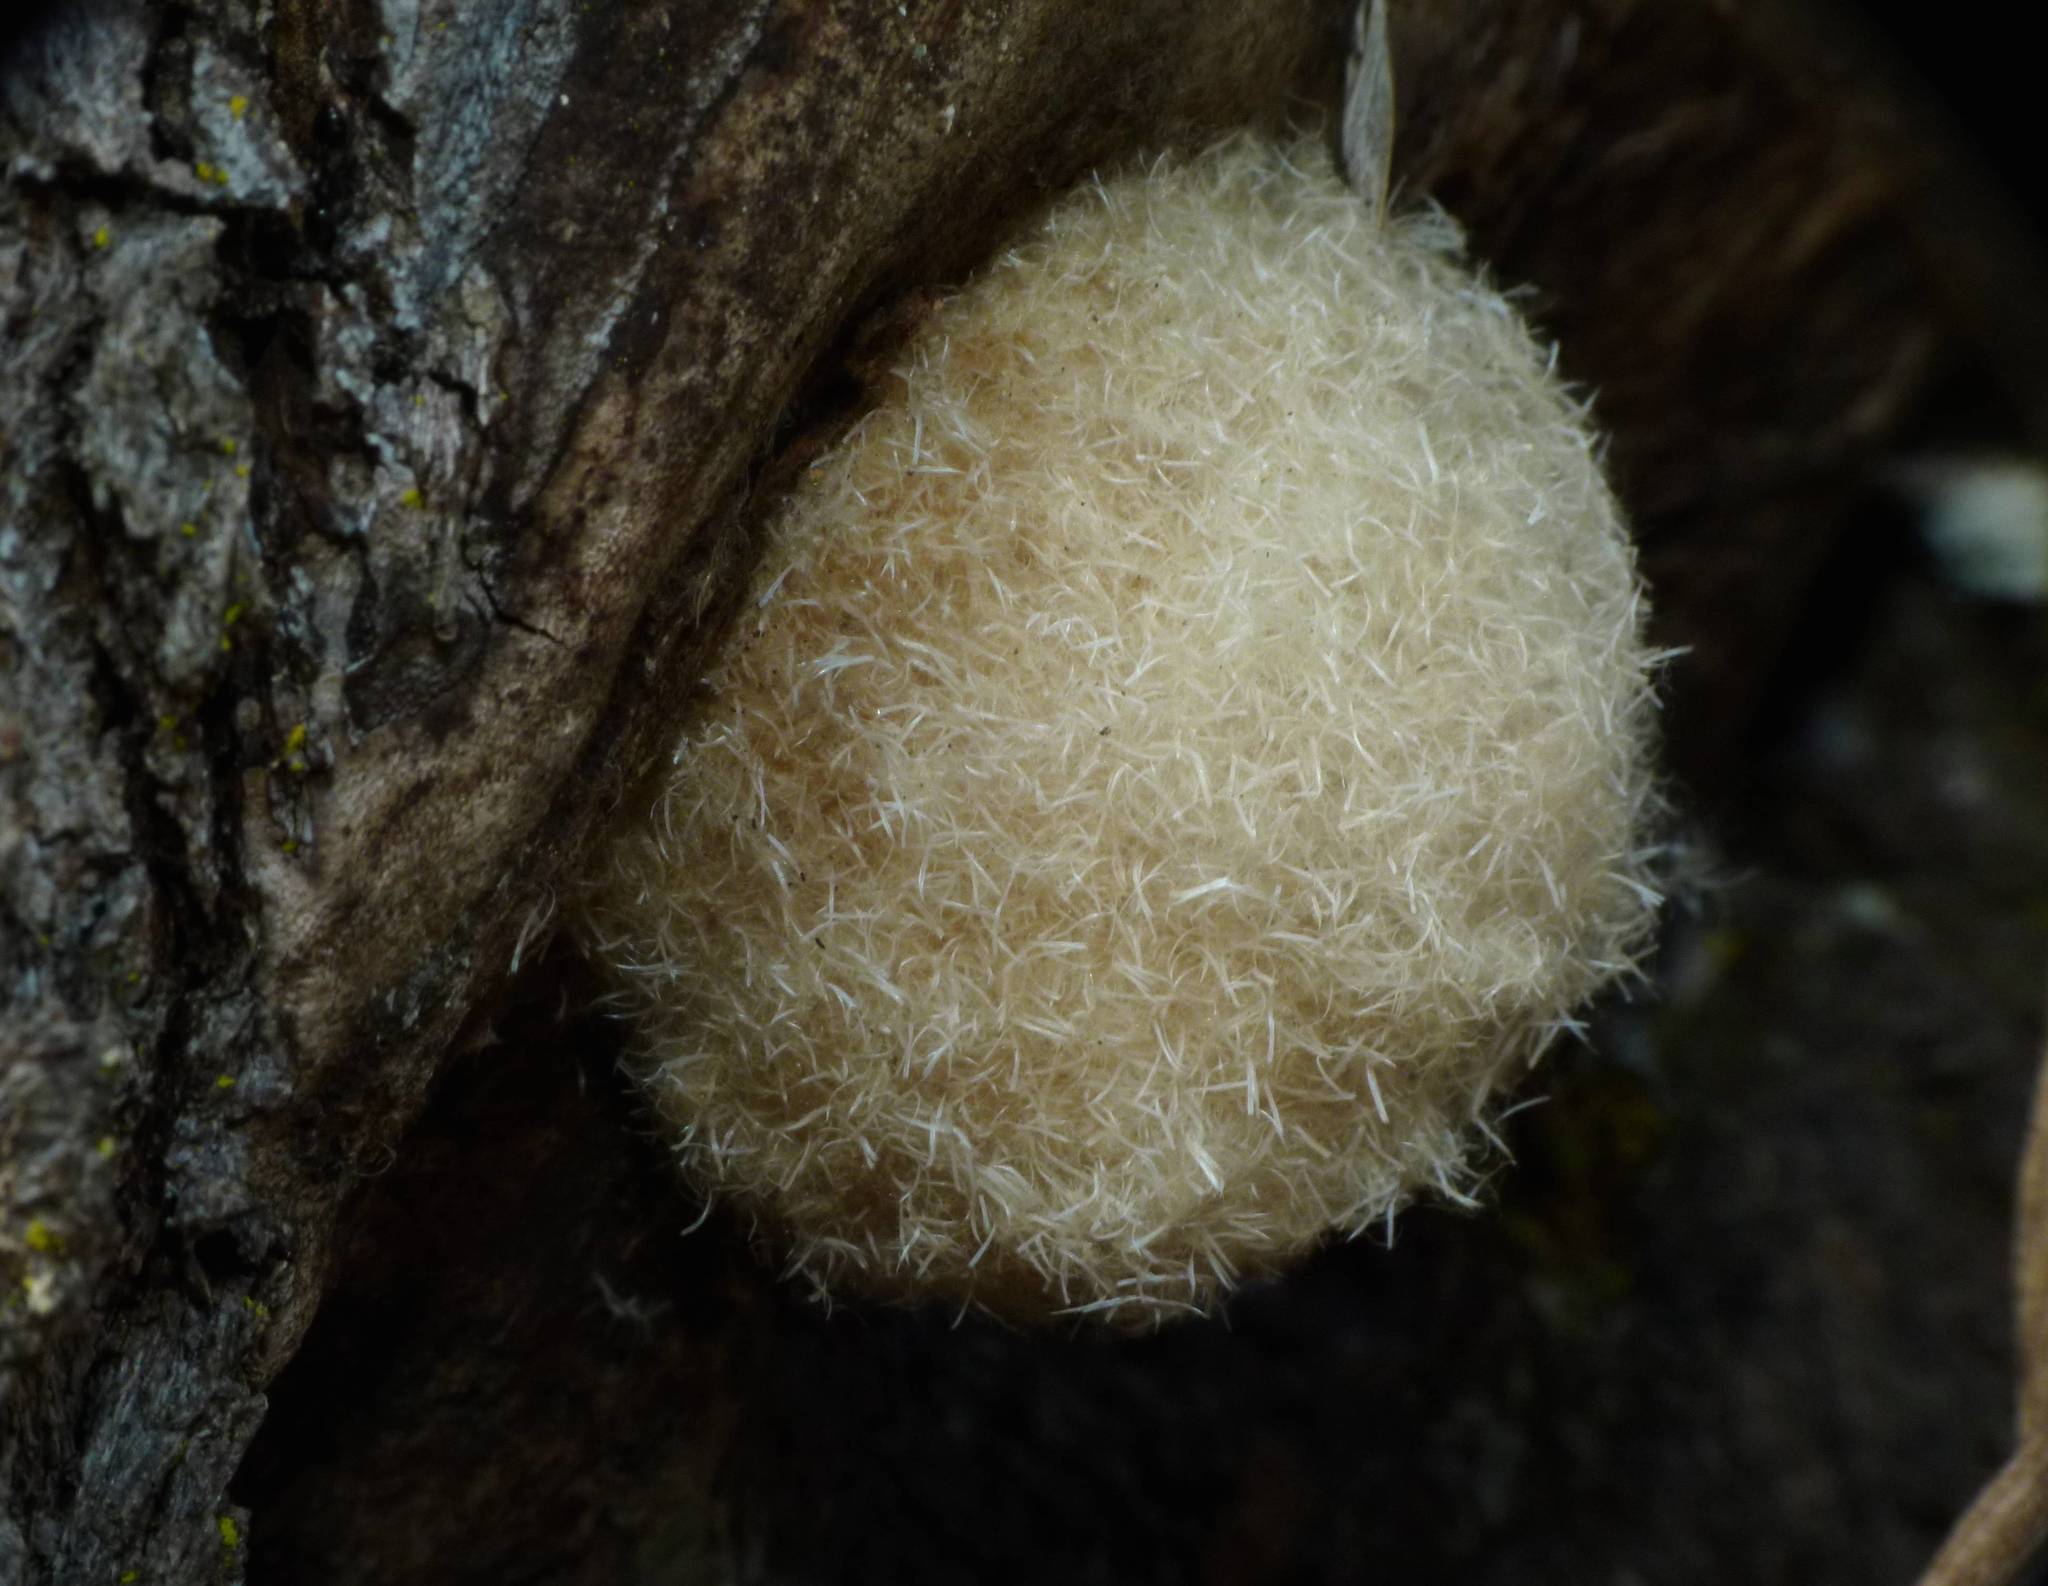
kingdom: Animalia
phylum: Arthropoda
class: Insecta
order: Lepidoptera
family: Notodontidae
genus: Ochrogaster
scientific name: Ochrogaster lunifer
